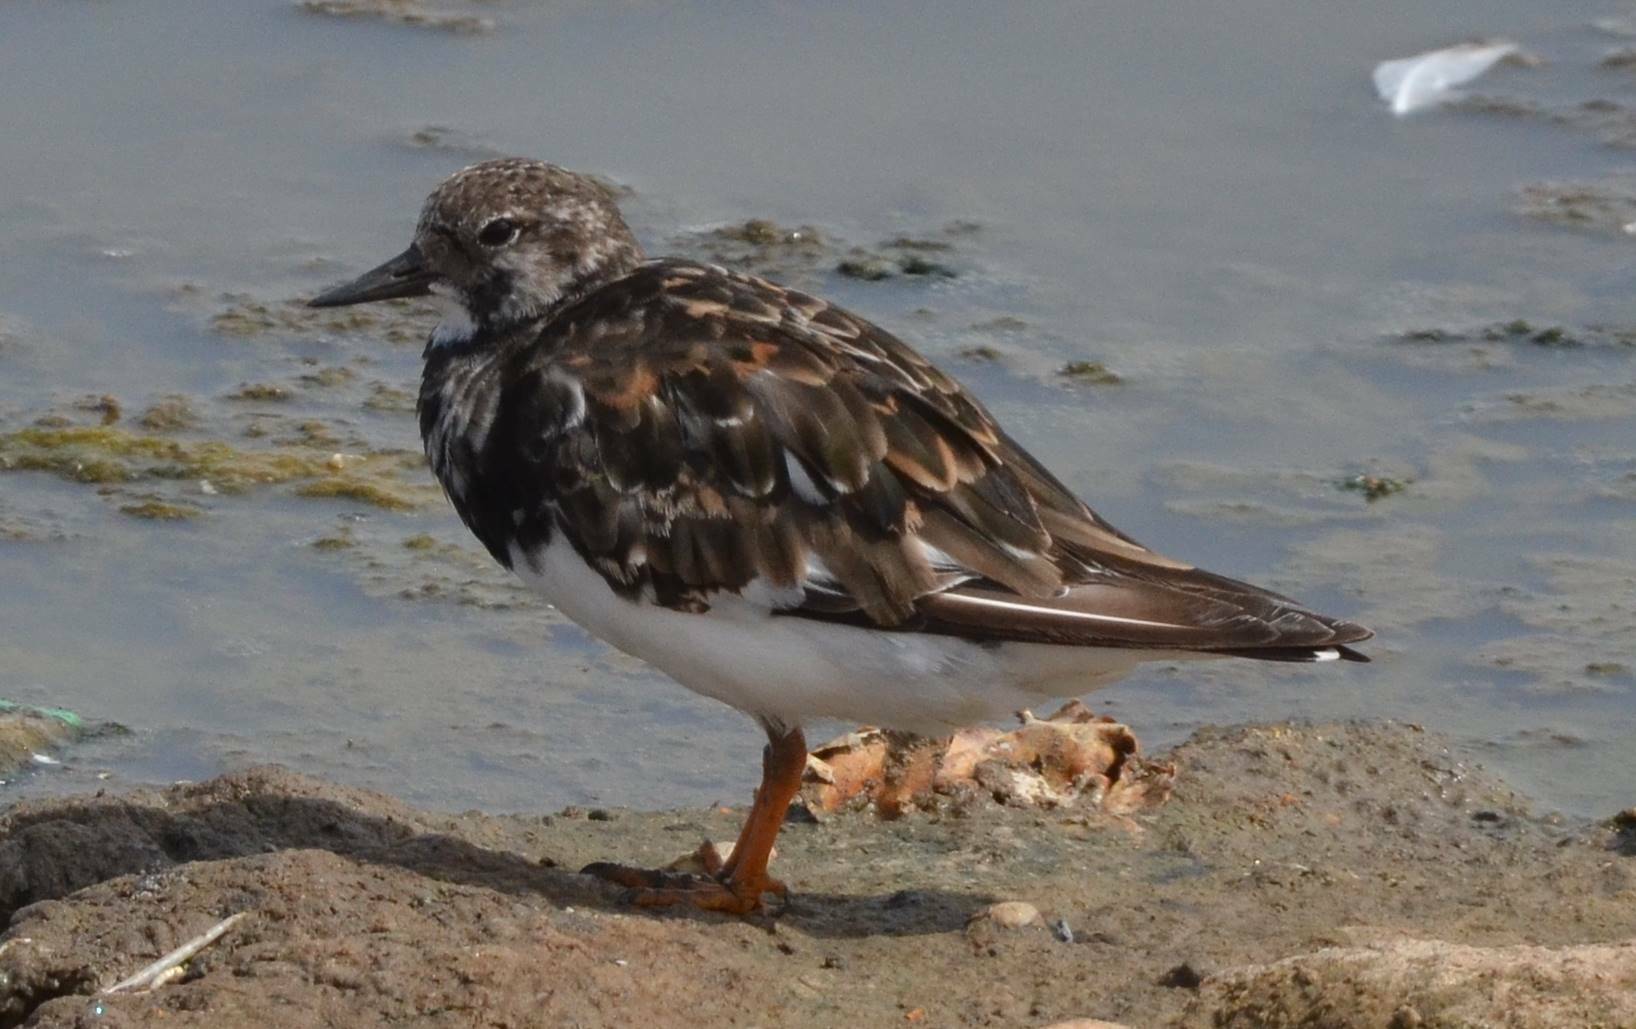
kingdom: Animalia
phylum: Chordata
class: Aves
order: Charadriiformes
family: Scolopacidae
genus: Arenaria
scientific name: Arenaria interpres
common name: Ruddy turnstone
